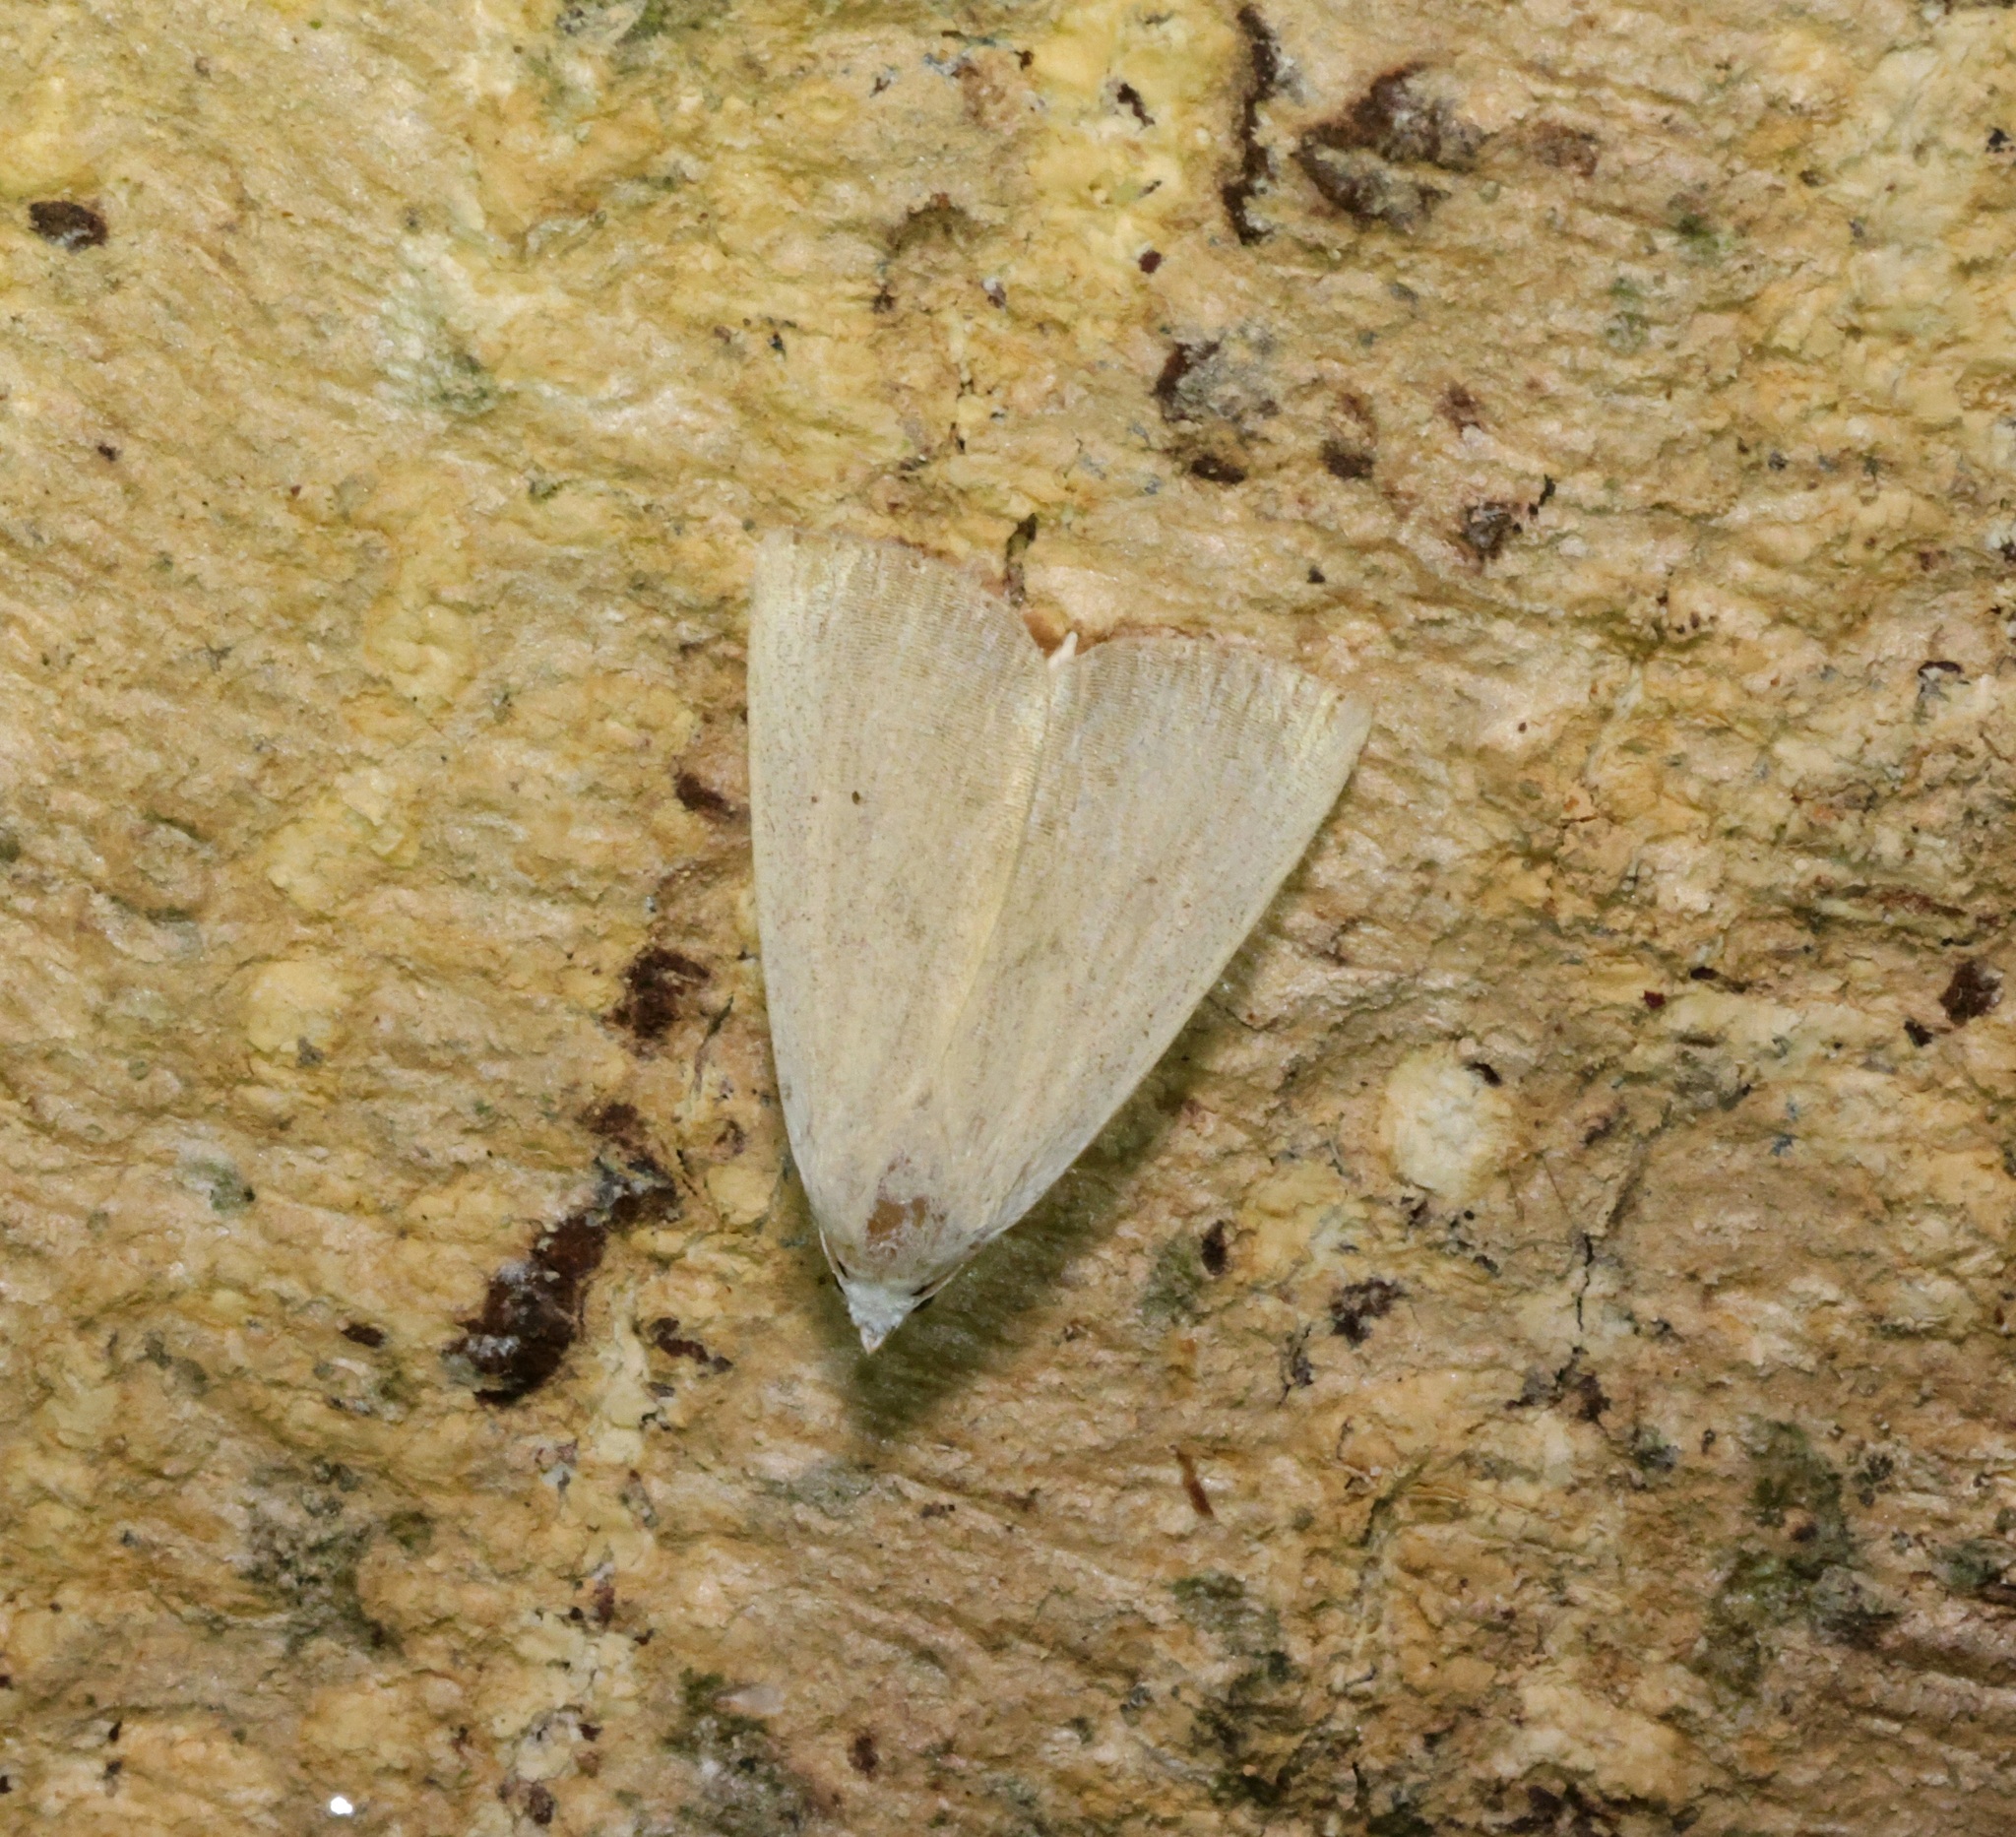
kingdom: Animalia
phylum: Arthropoda
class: Insecta
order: Lepidoptera
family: Erebidae
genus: Rivula
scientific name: Rivula ochracea
